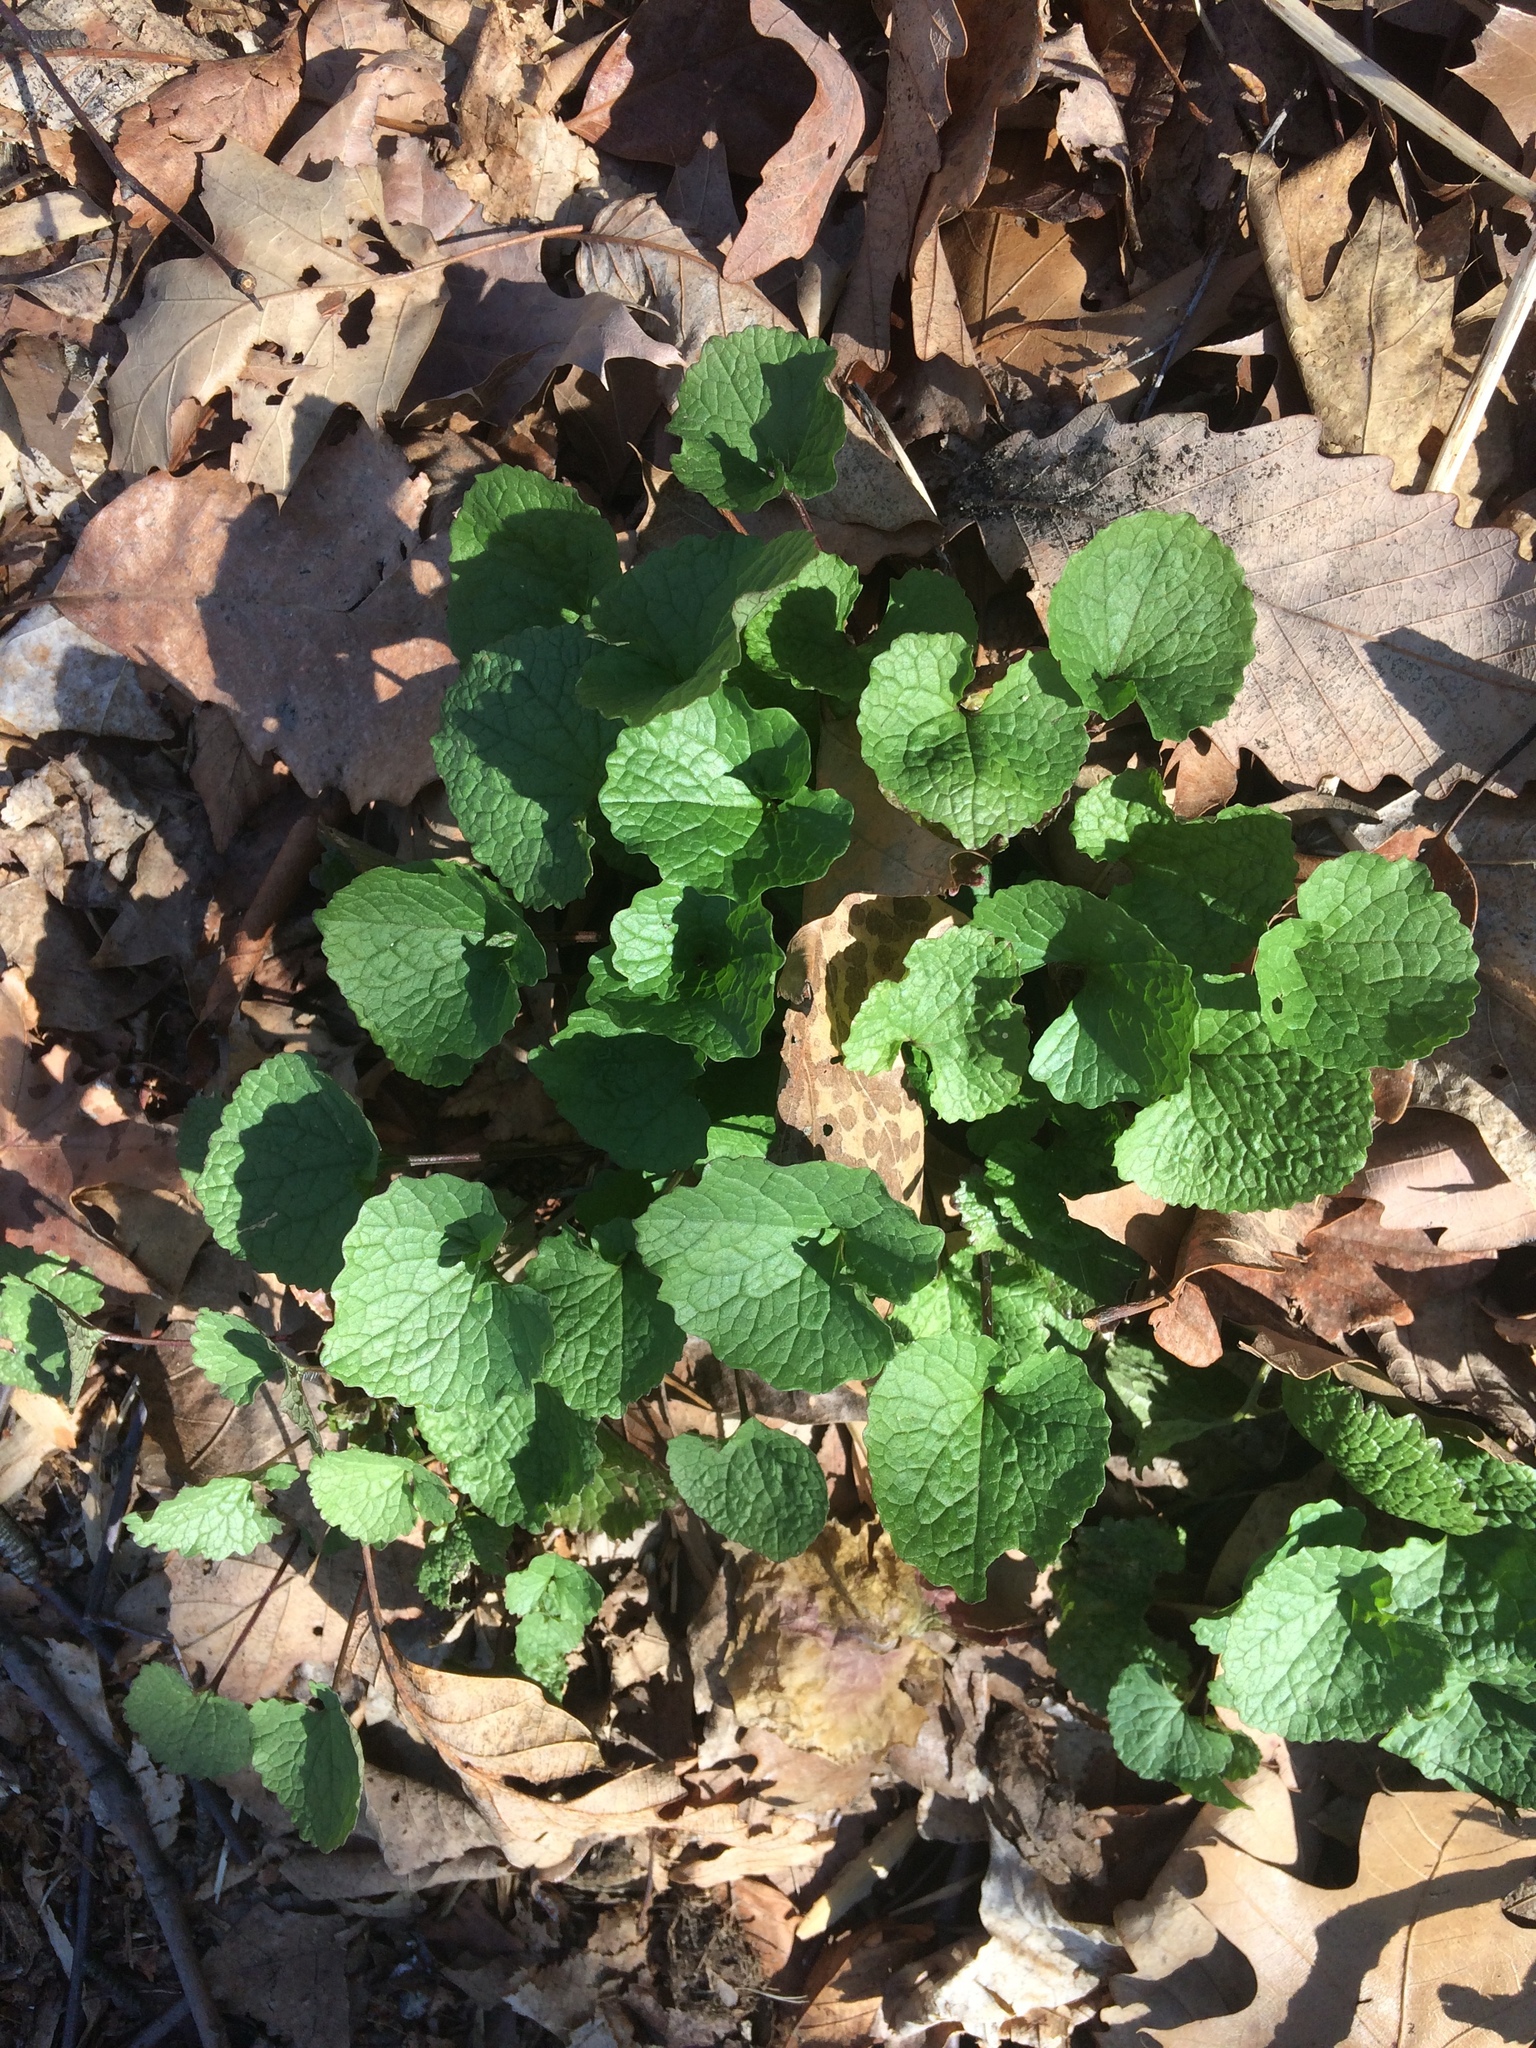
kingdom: Plantae
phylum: Tracheophyta
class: Magnoliopsida
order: Brassicales
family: Brassicaceae
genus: Alliaria
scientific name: Alliaria petiolata
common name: Garlic mustard
